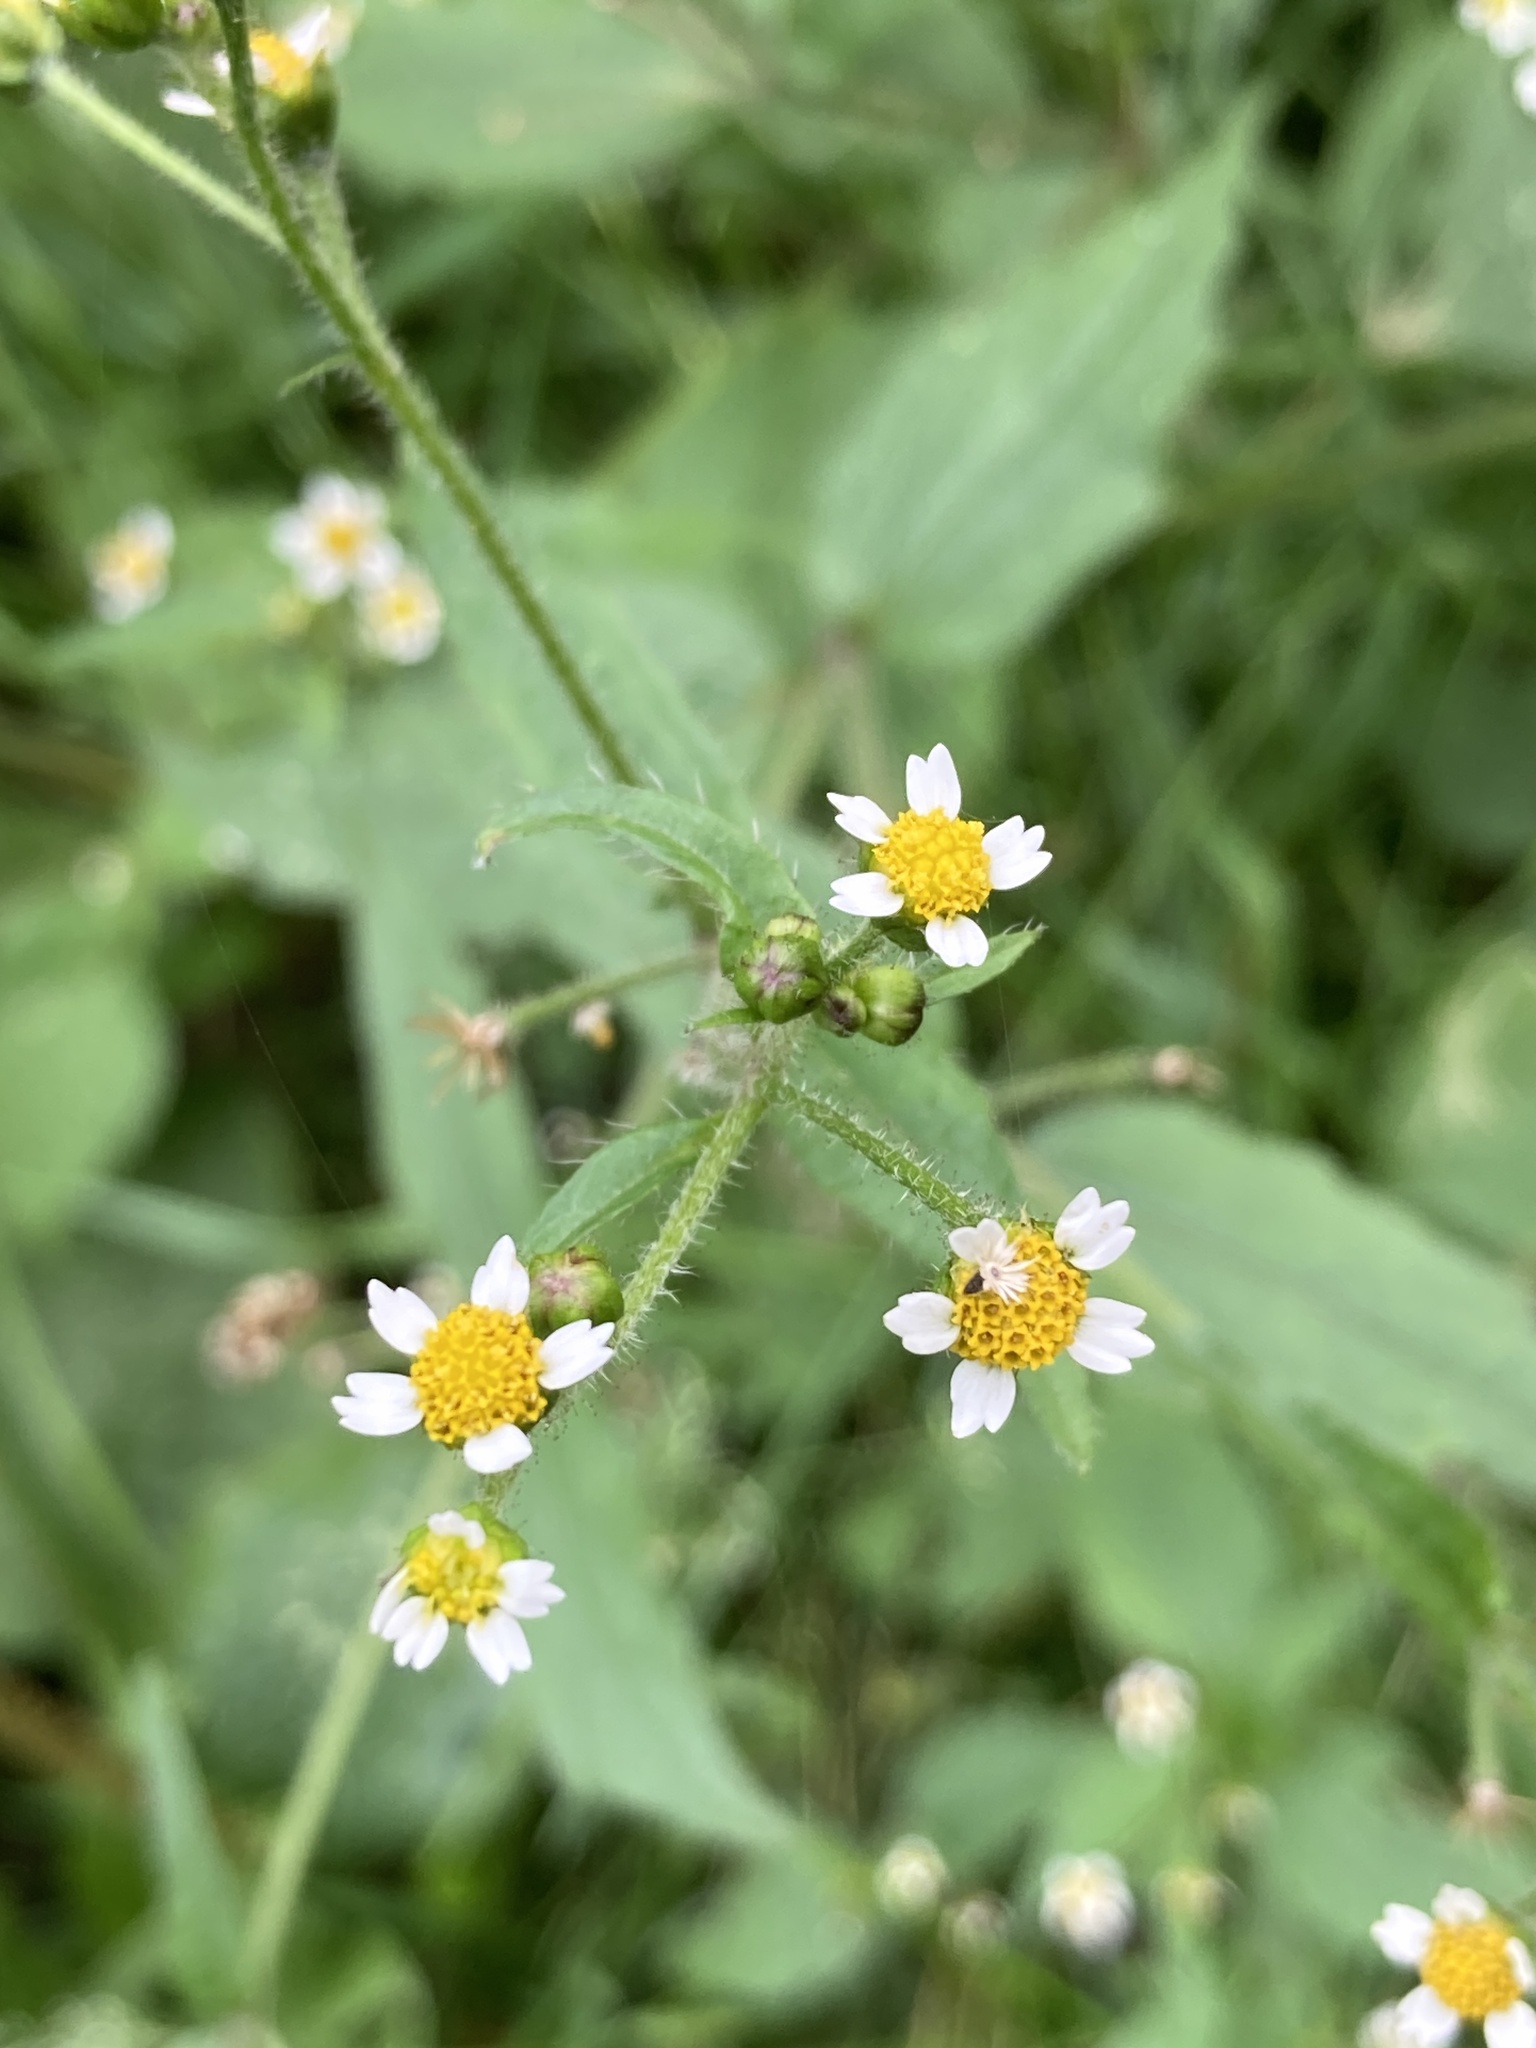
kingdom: Plantae
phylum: Tracheophyta
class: Magnoliopsida
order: Asterales
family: Asteraceae
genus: Galinsoga
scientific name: Galinsoga quadriradiata
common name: Shaggy soldier
